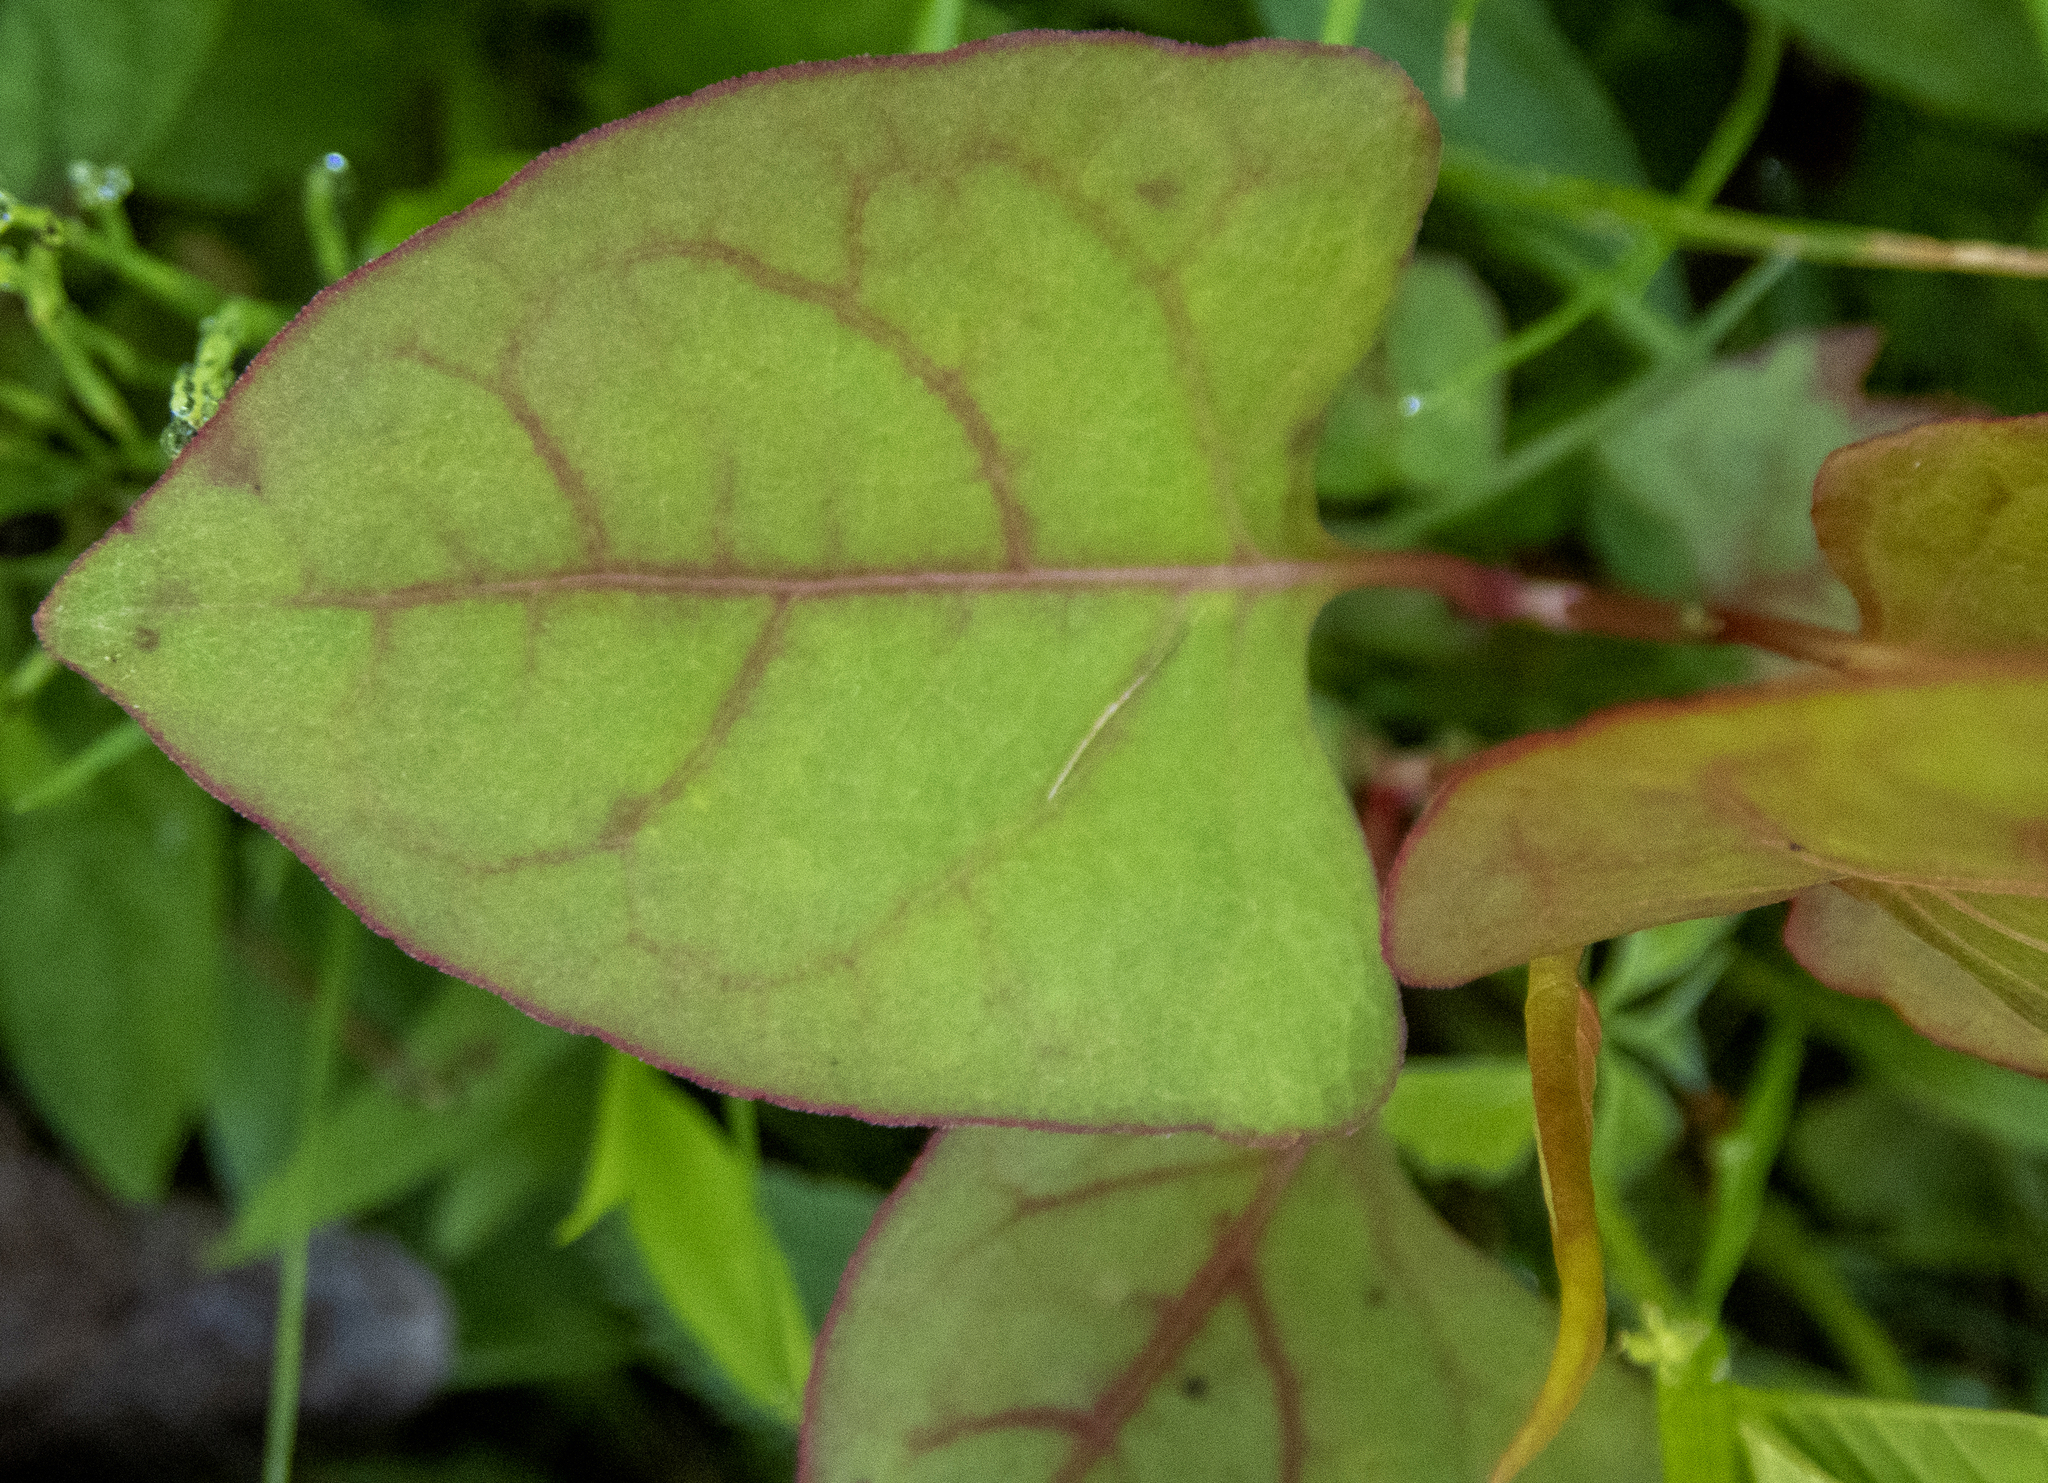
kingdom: Plantae
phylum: Tracheophyta
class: Magnoliopsida
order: Caryophyllales
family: Polygonaceae
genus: Reynoutria
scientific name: Reynoutria japonica
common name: Japanese knotweed
